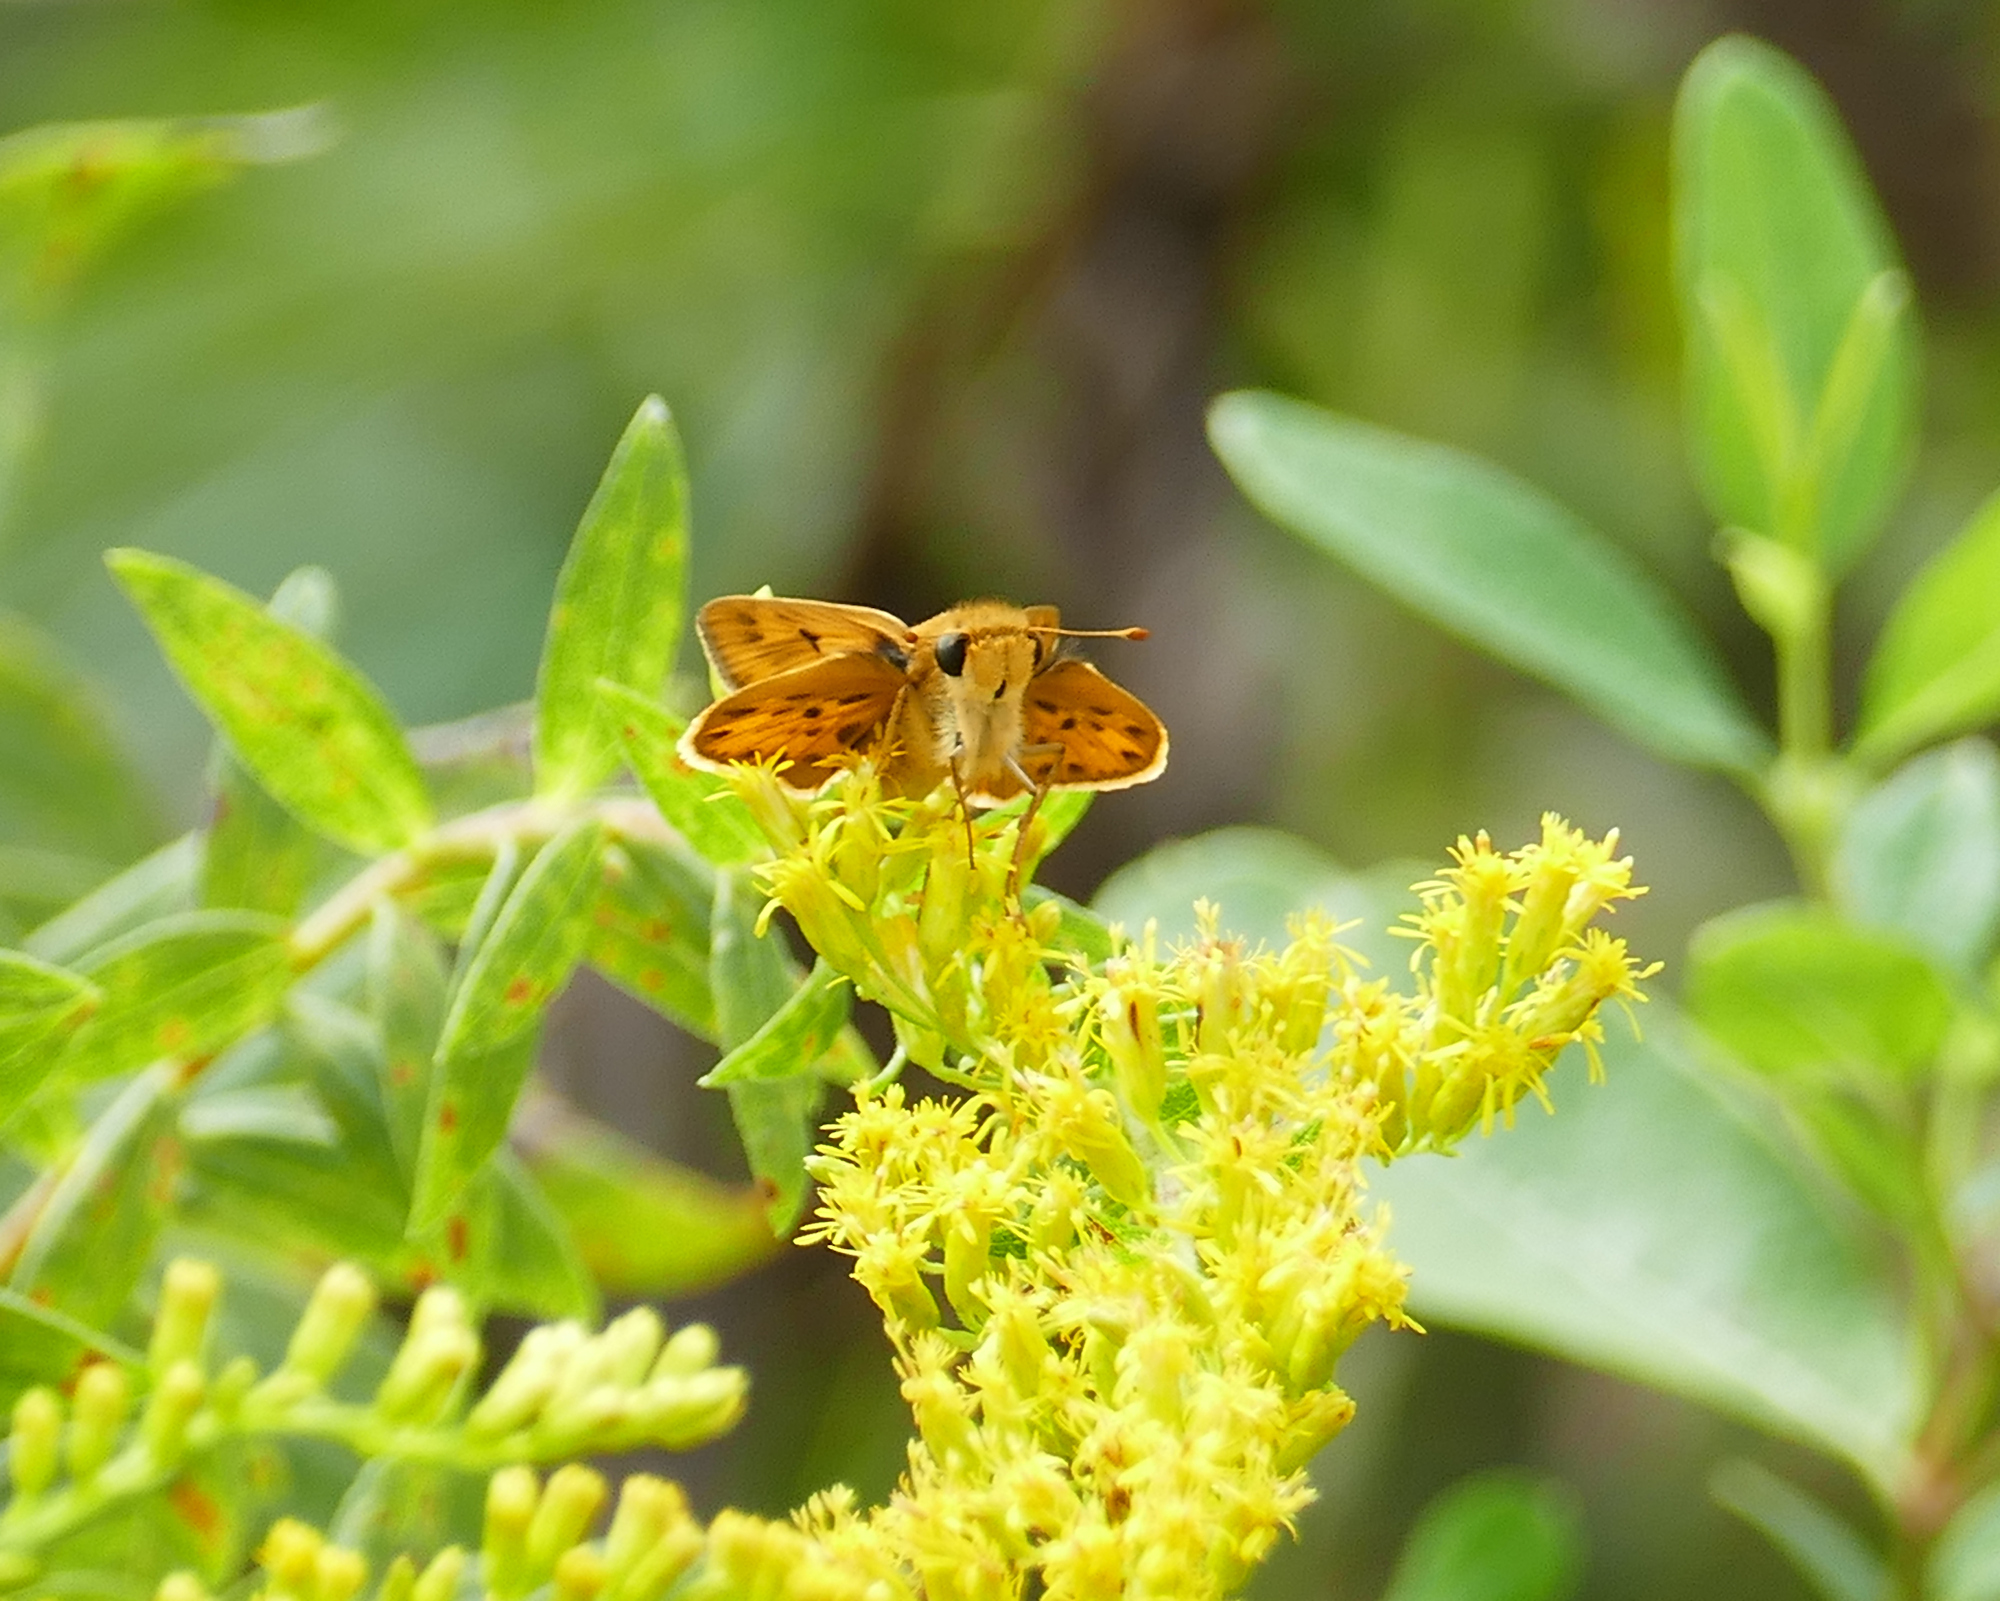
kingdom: Animalia
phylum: Arthropoda
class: Insecta
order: Lepidoptera
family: Hesperiidae
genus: Hylephila
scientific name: Hylephila phyleus
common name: Fiery skipper
